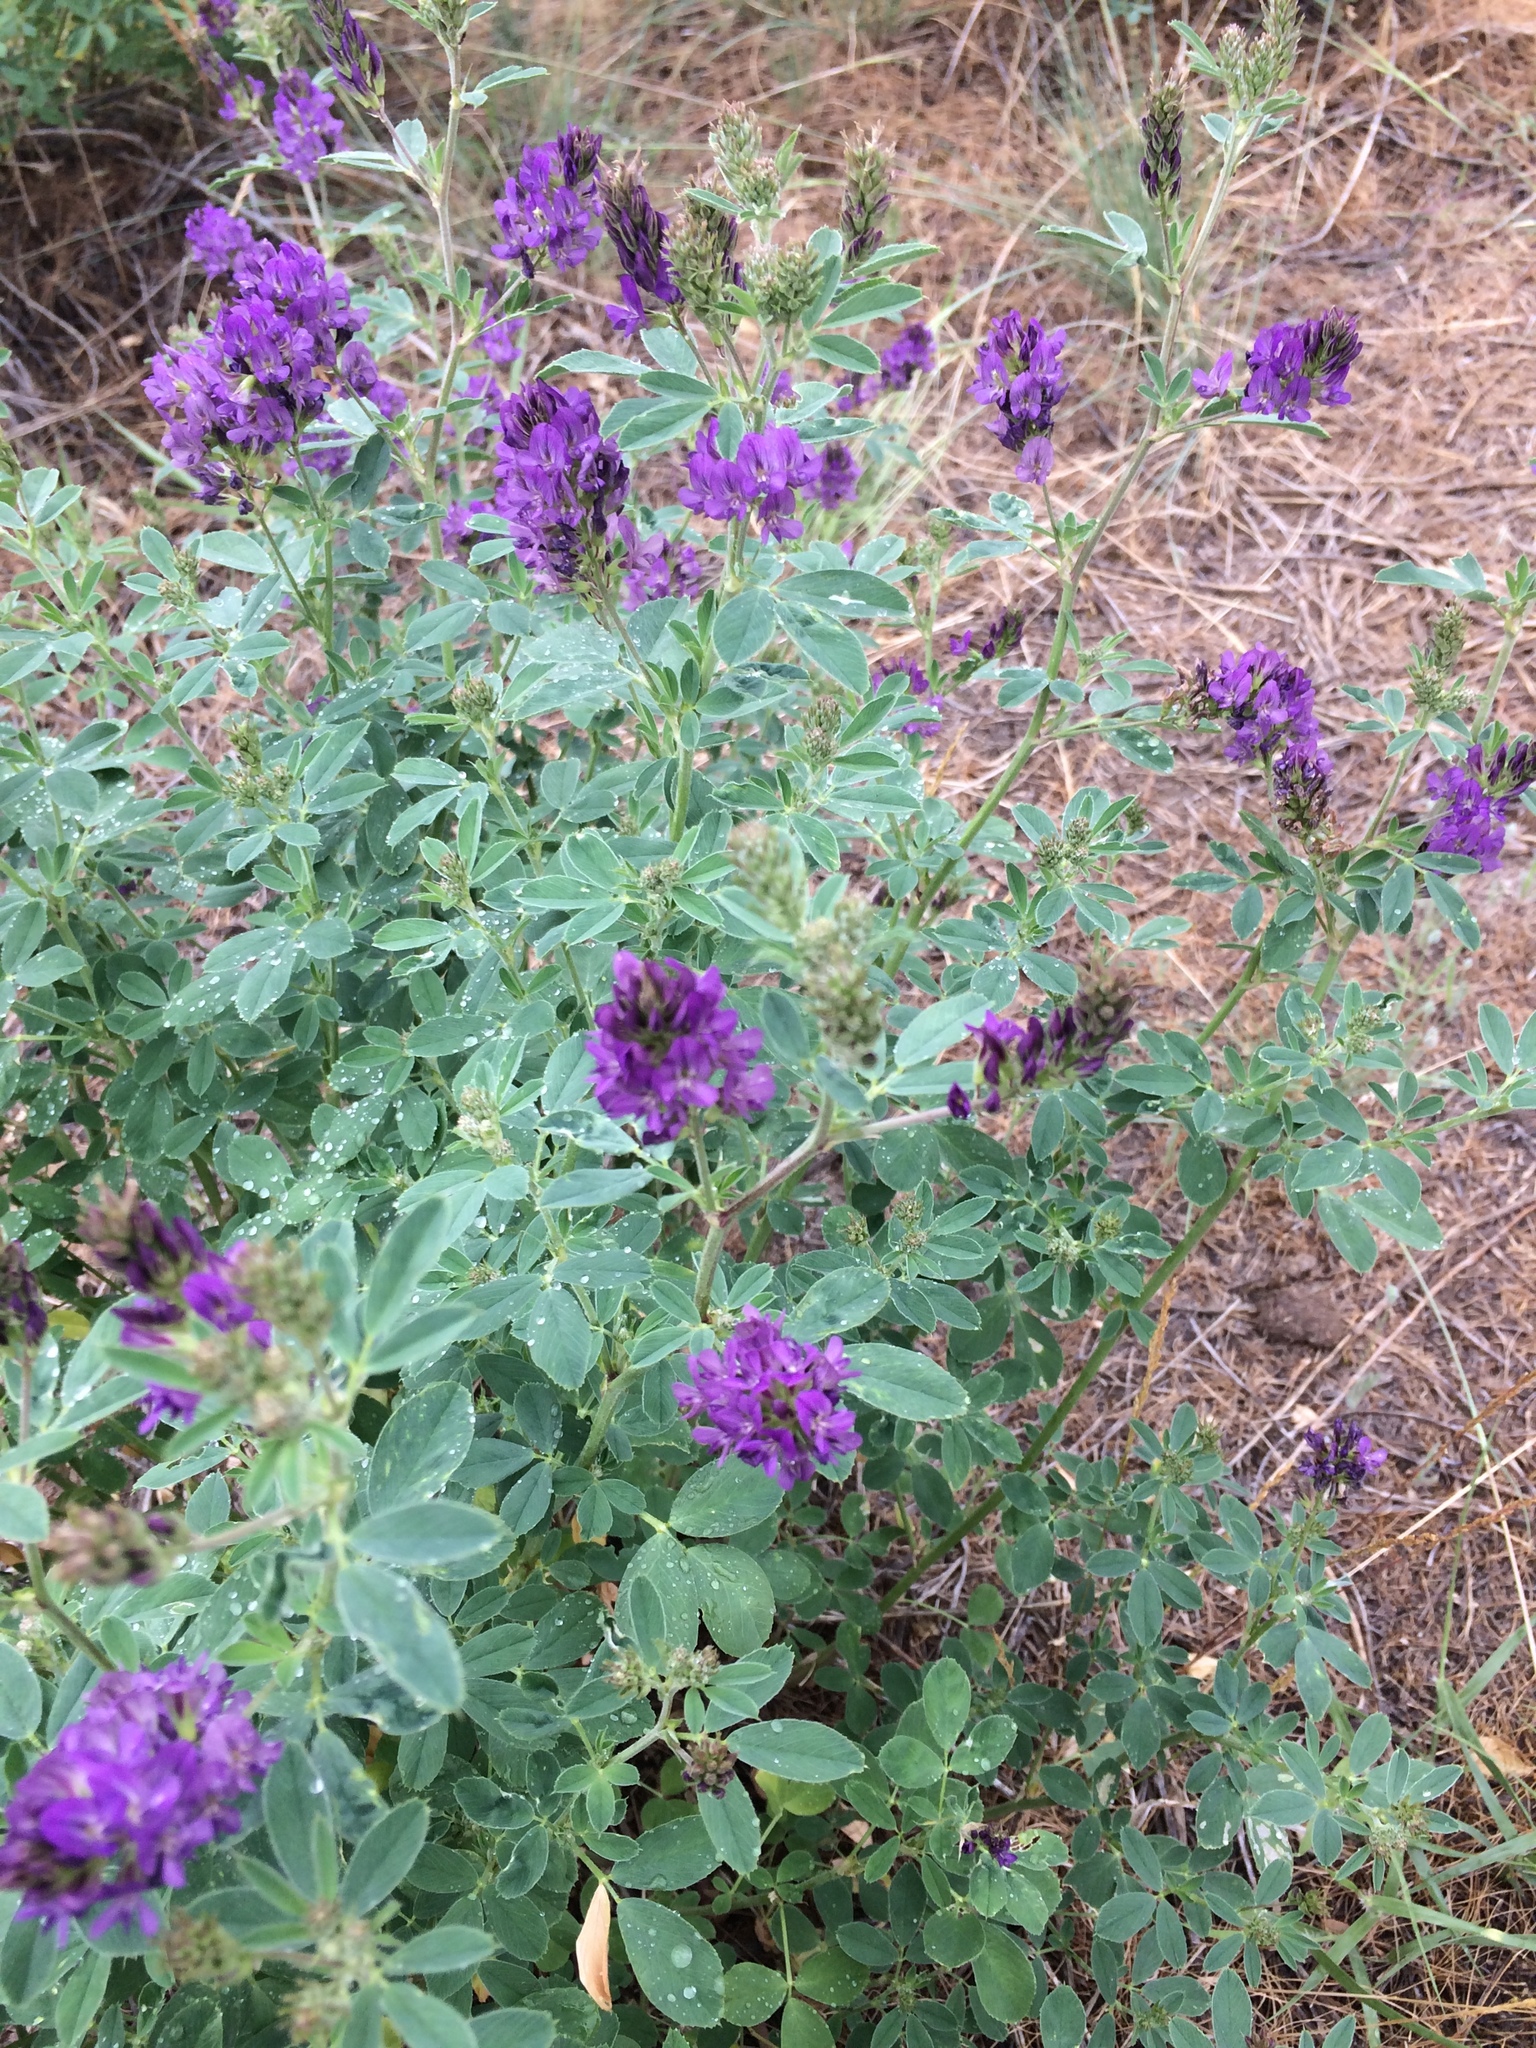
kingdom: Plantae
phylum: Tracheophyta
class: Magnoliopsida
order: Fabales
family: Fabaceae
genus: Medicago
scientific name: Medicago sativa
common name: Alfalfa
